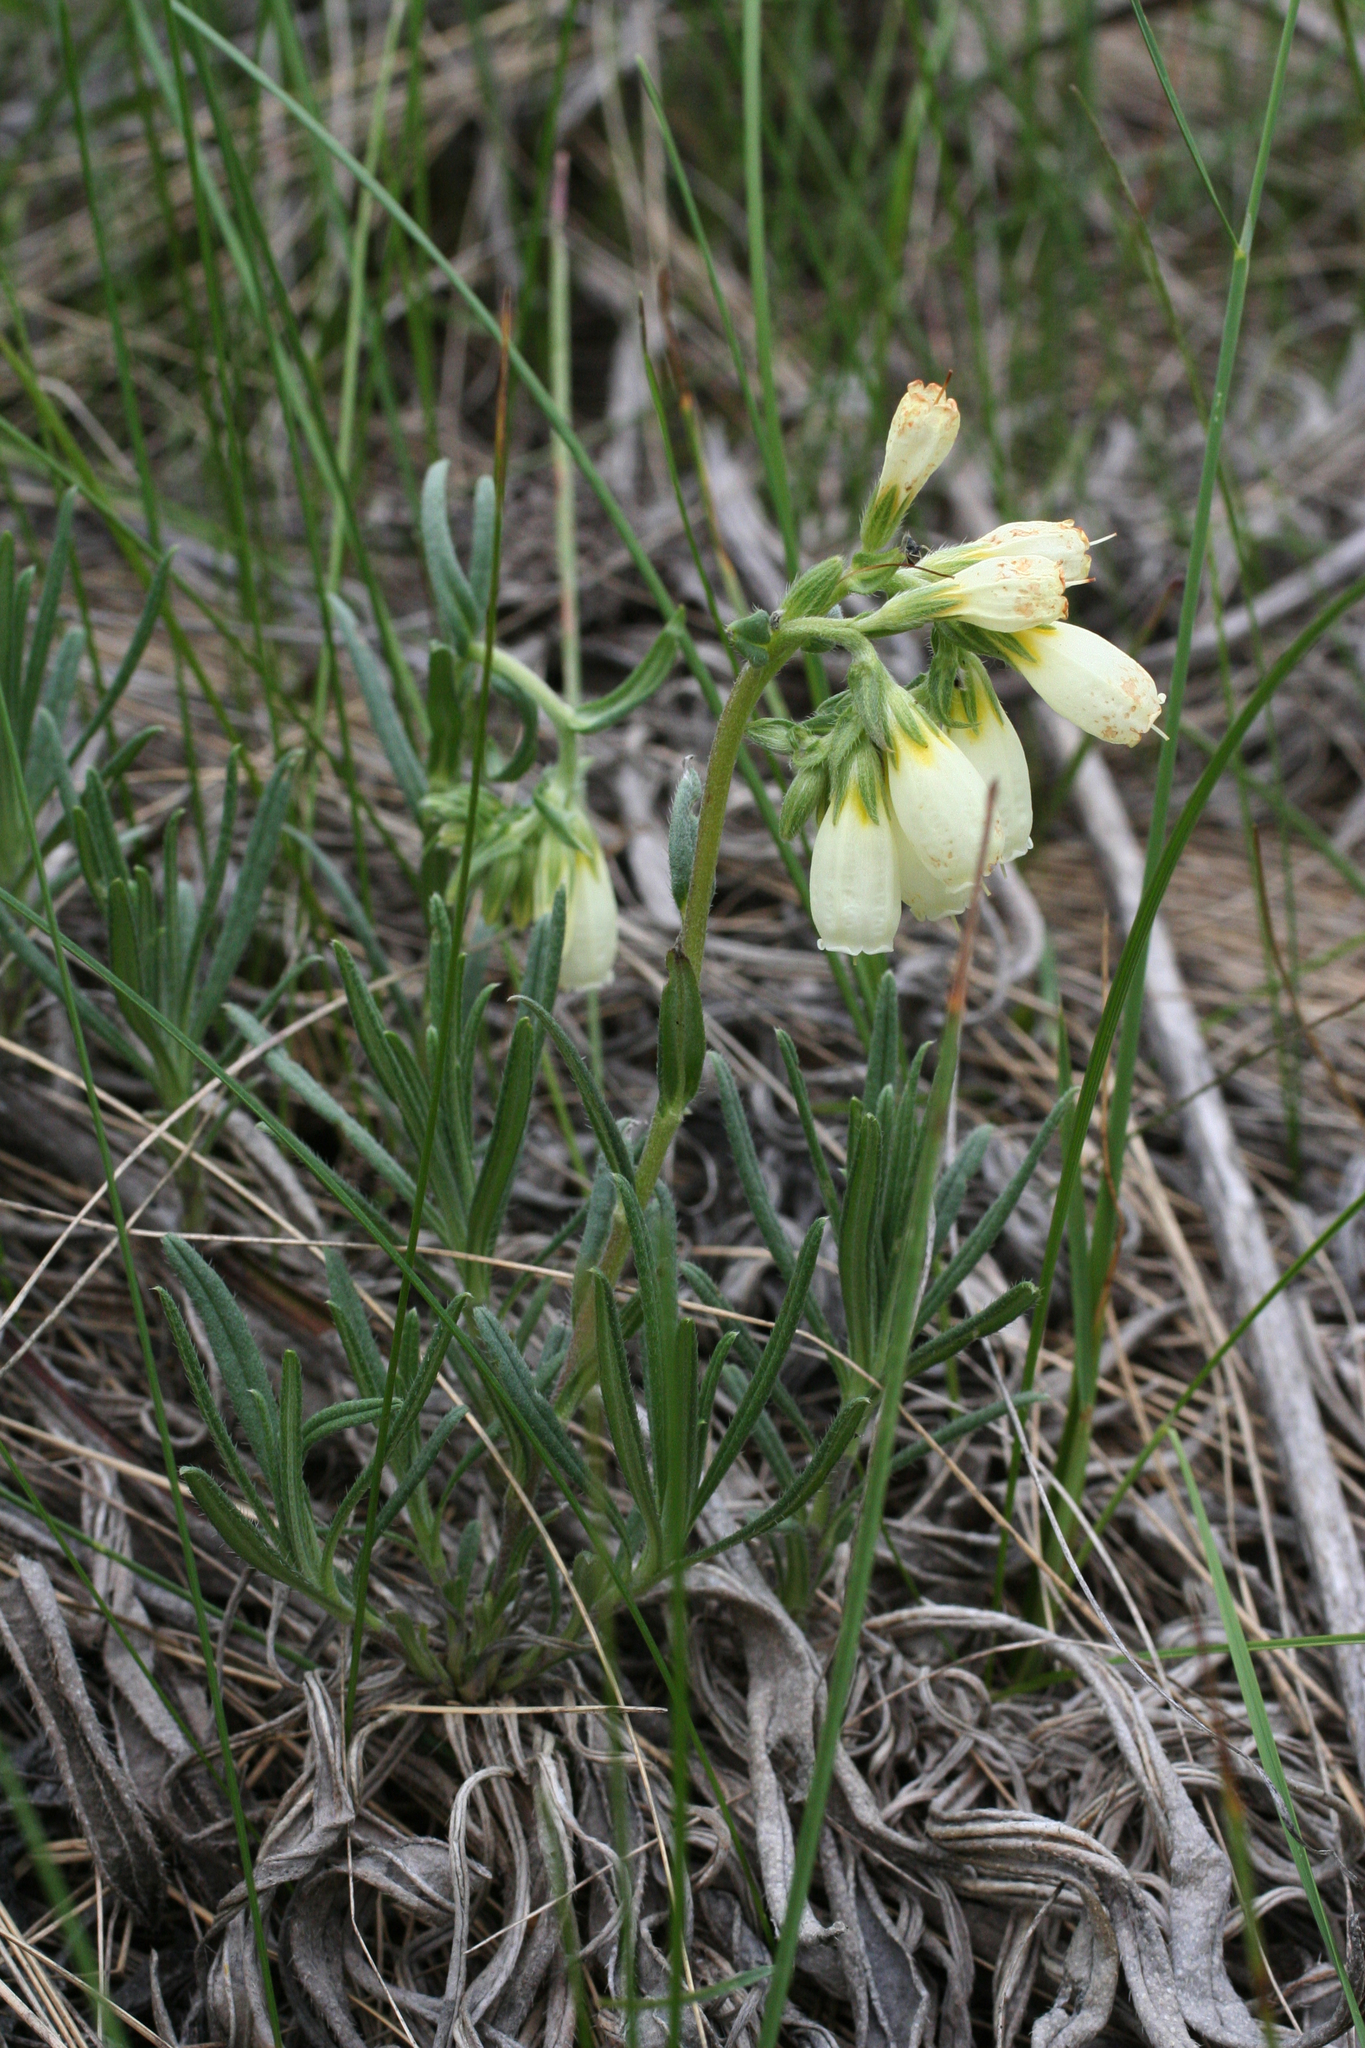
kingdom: Plantae
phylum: Tracheophyta
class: Magnoliopsida
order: Boraginales
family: Boraginaceae
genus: Onosma
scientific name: Onosma simplicissima
